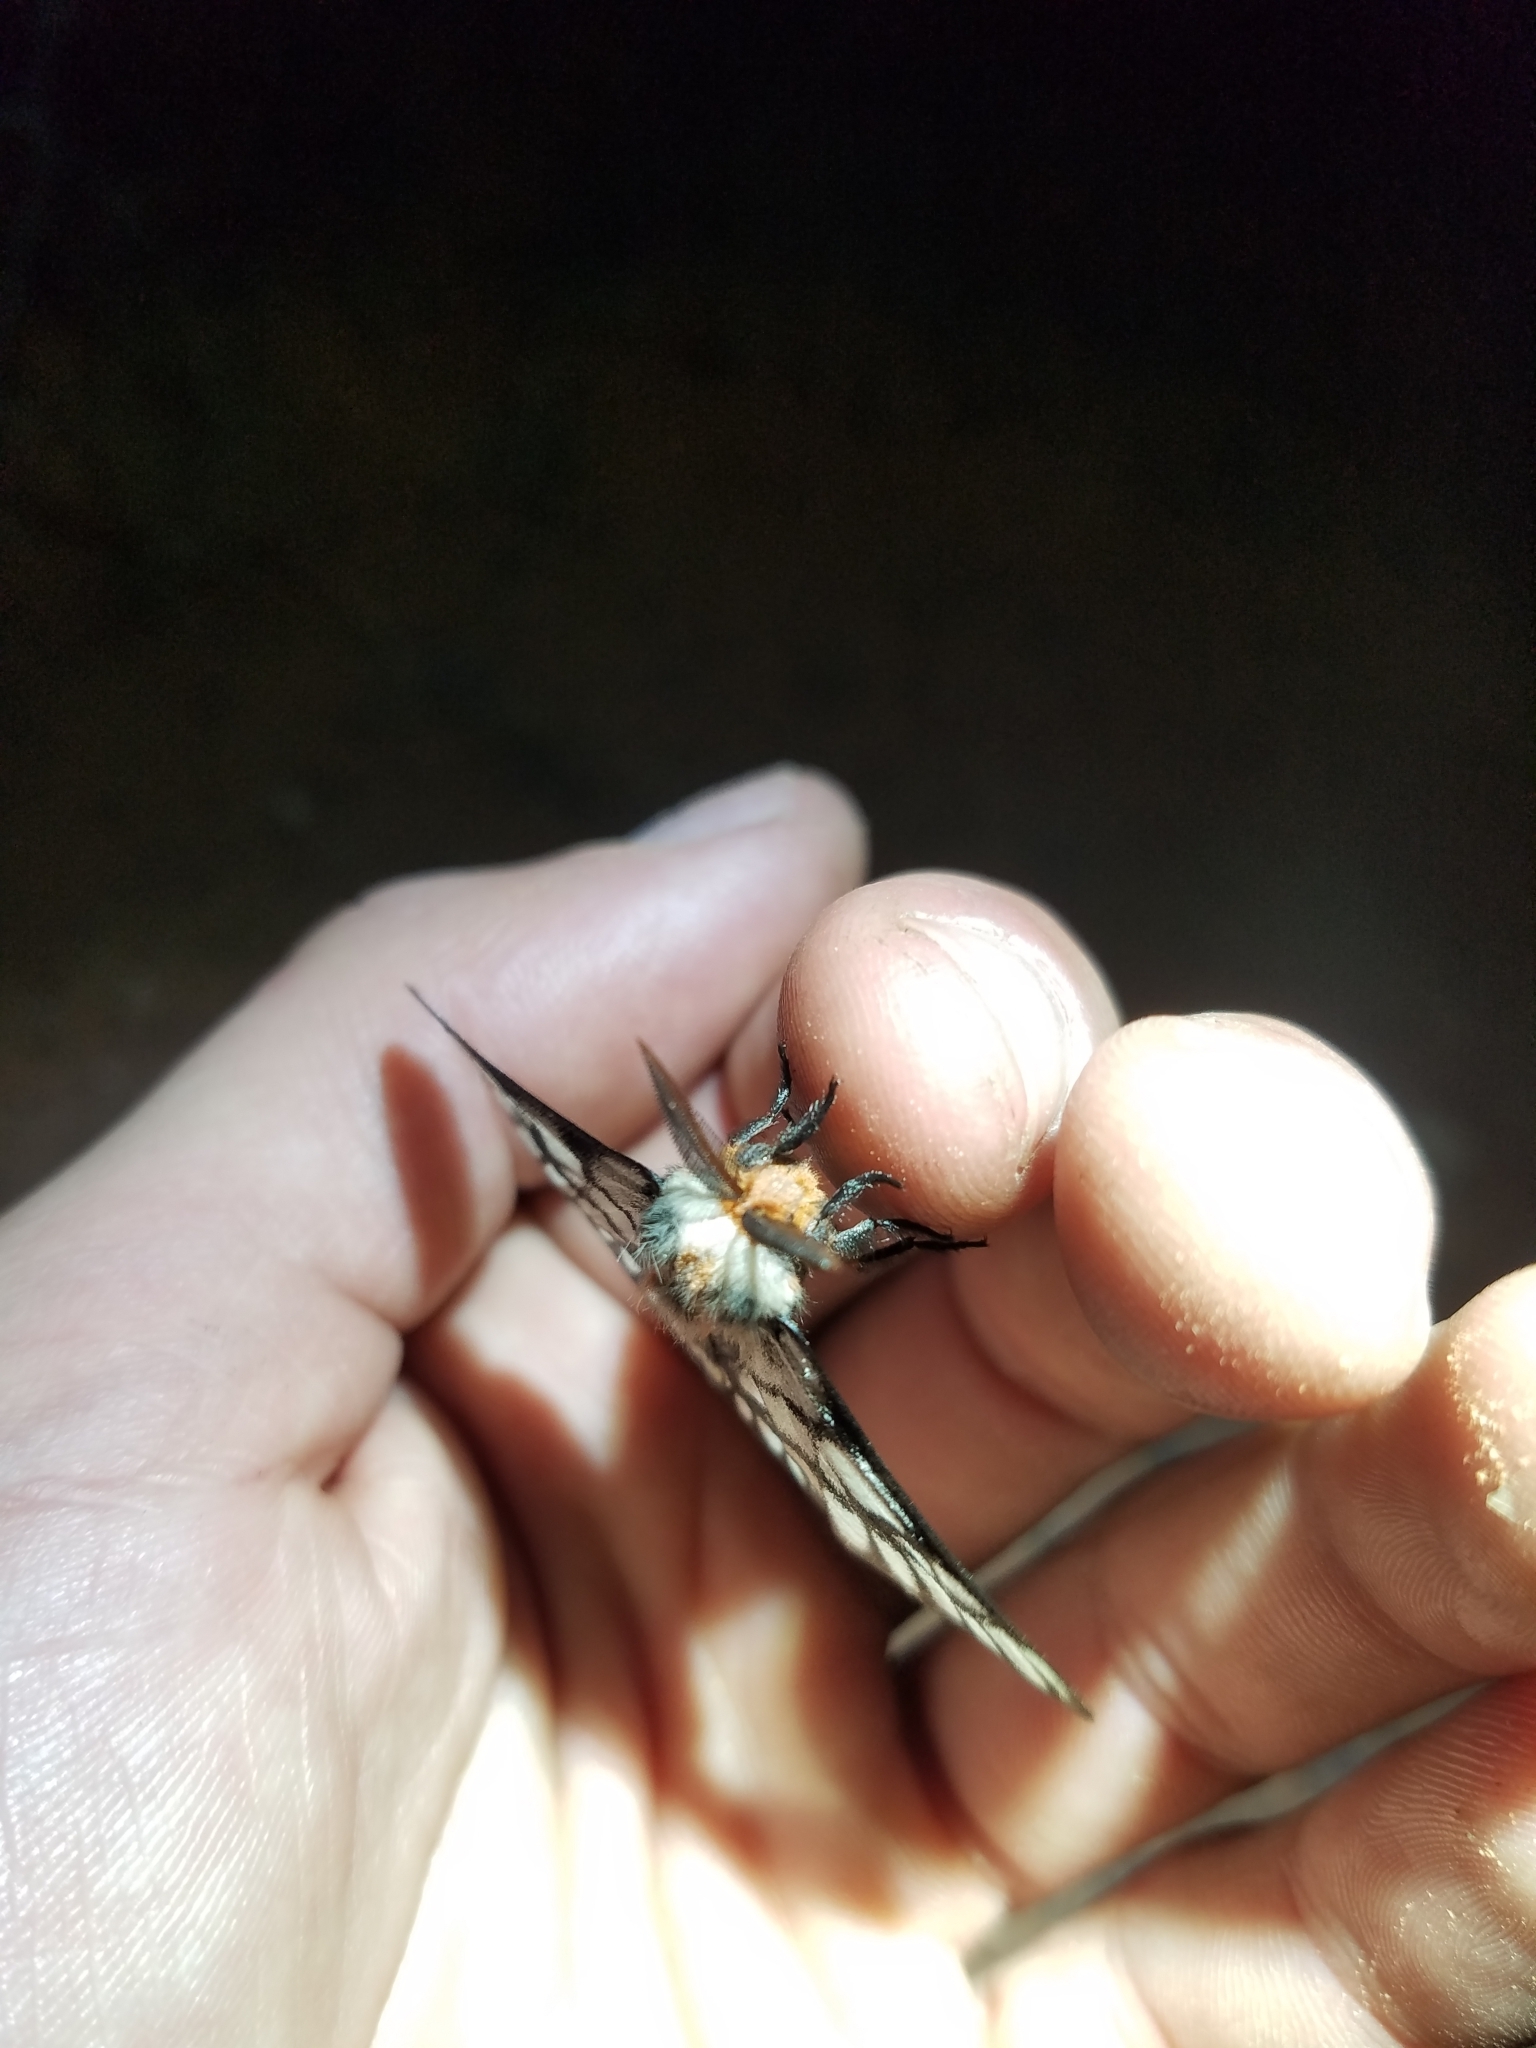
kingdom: Animalia
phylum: Arthropoda
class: Insecta
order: Lepidoptera
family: Saturniidae
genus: Hemileuca
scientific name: Hemileuca griffini
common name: Griffin's sheepmoth
